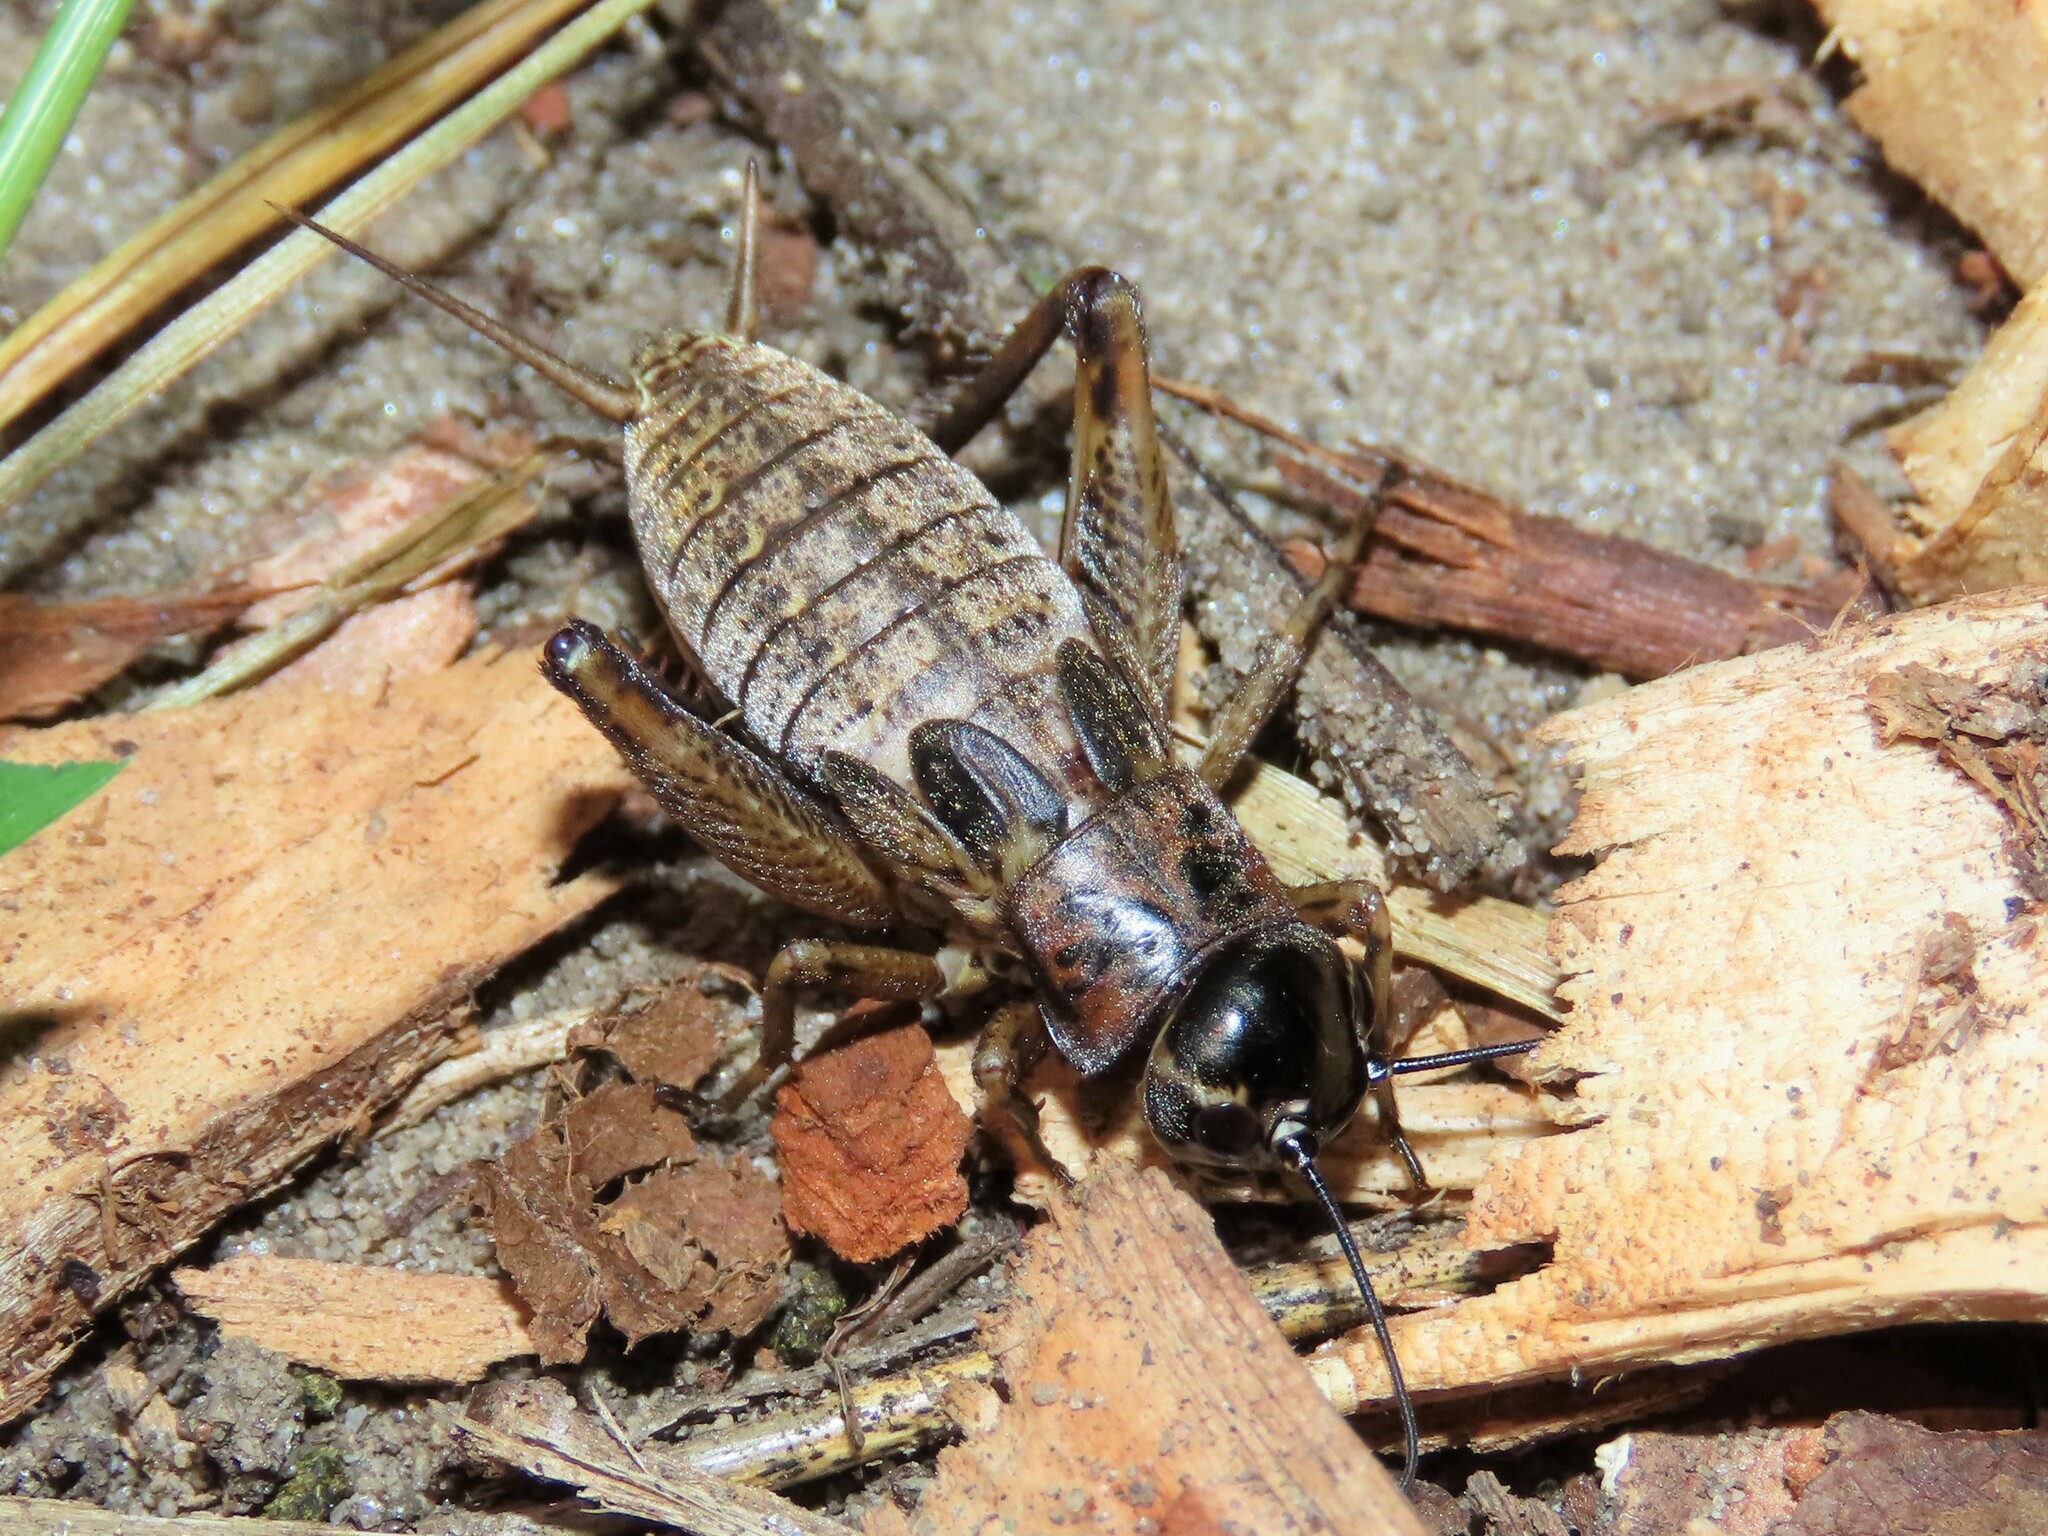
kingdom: Animalia
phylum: Arthropoda
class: Insecta
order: Orthoptera
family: Gryllidae
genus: Miogryllus
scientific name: Miogryllus verticalis
